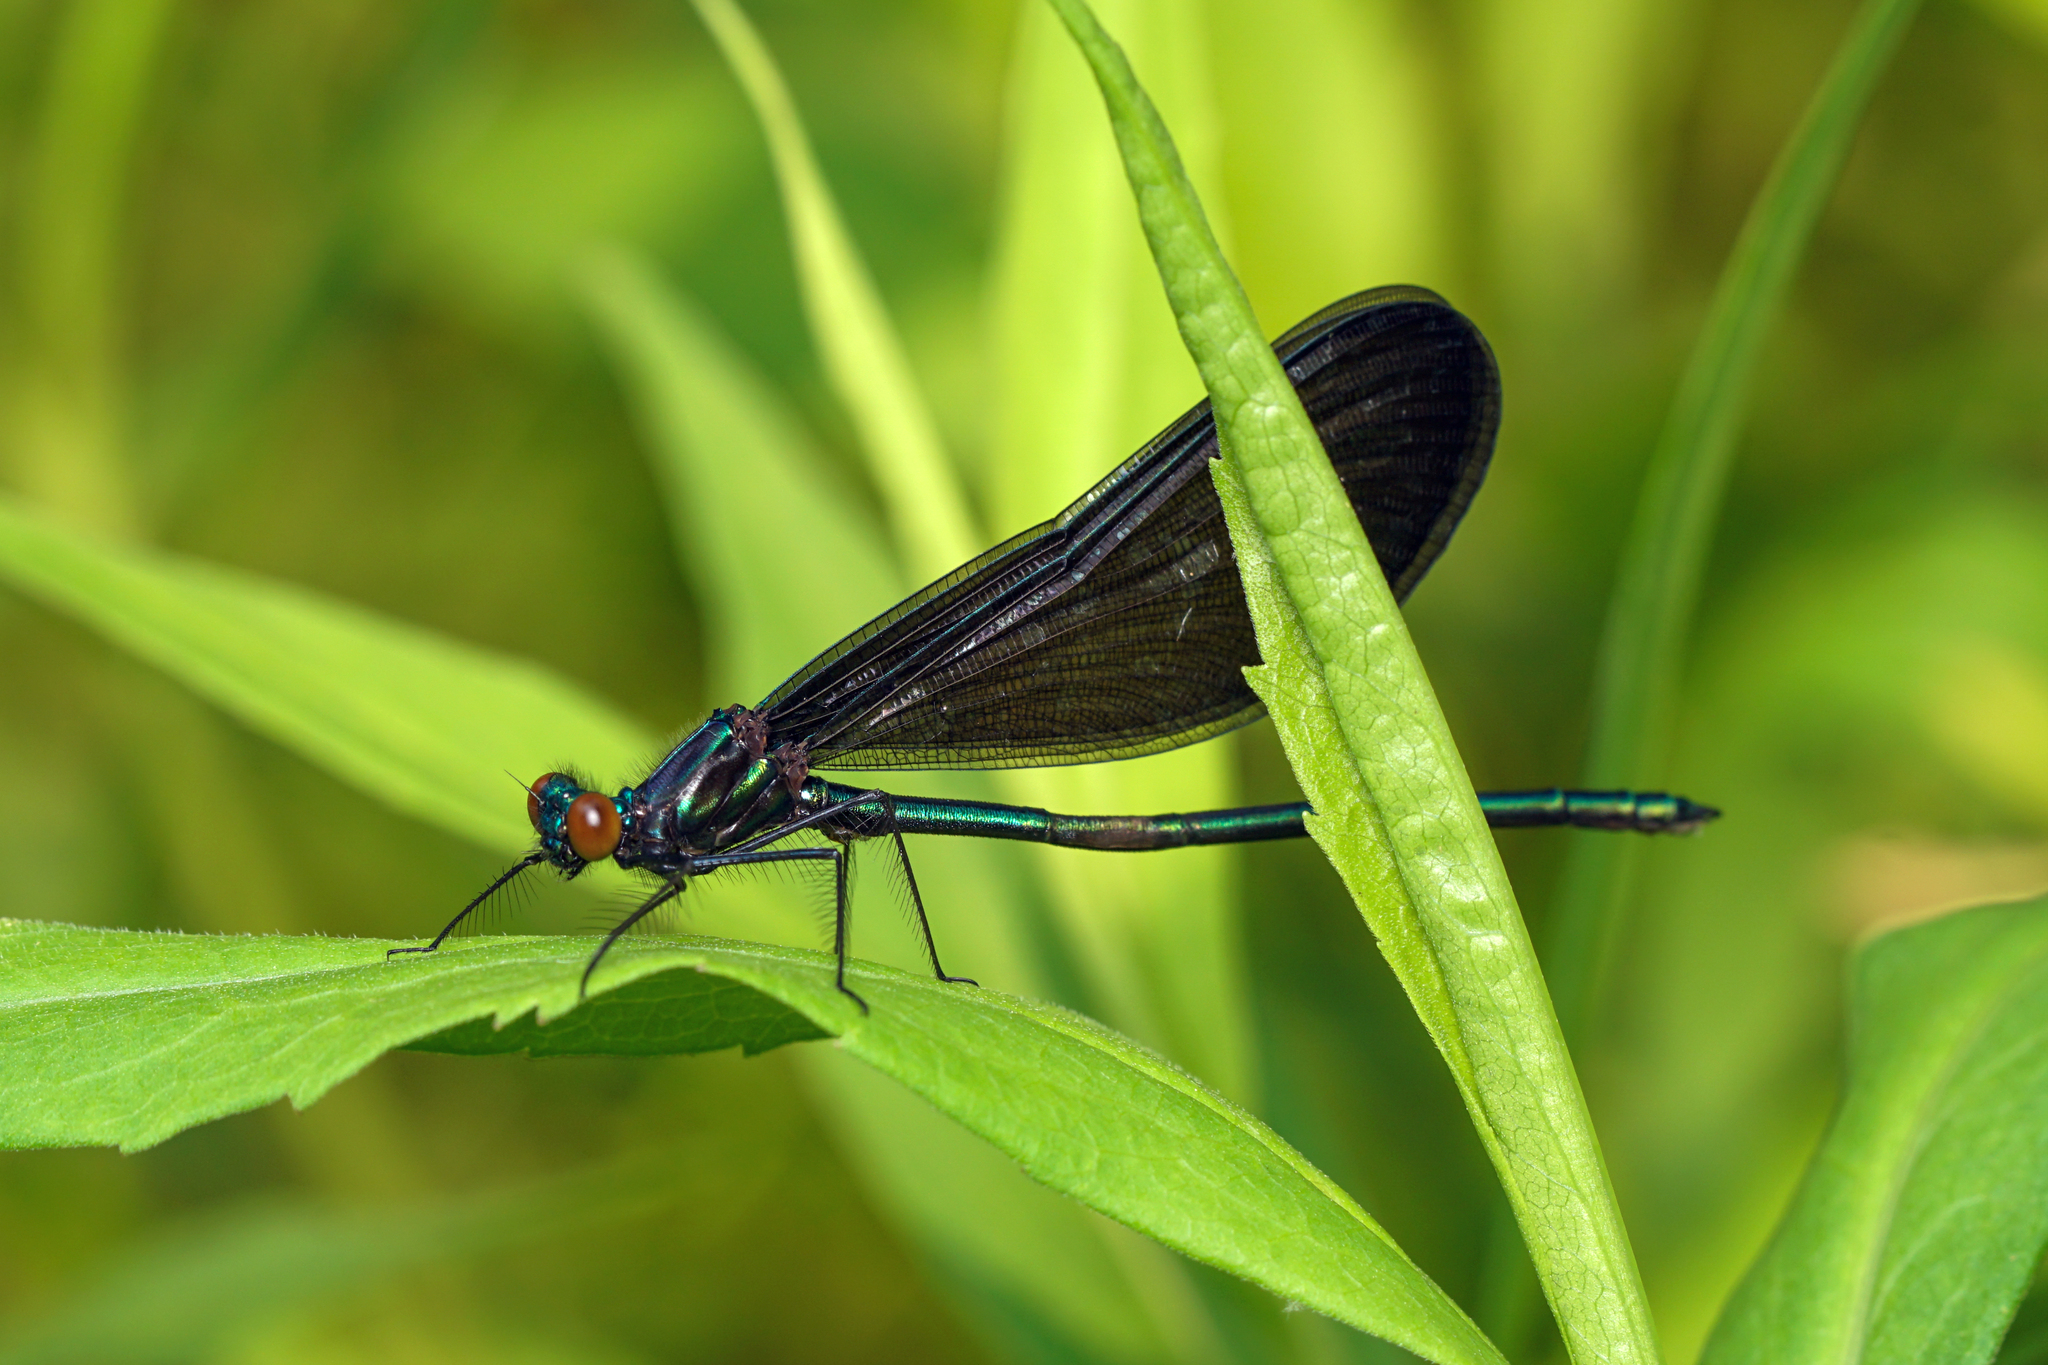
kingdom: Animalia
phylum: Arthropoda
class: Insecta
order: Odonata
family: Calopterygidae
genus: Calopteryx
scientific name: Calopteryx maculata
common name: Ebony jewelwing
